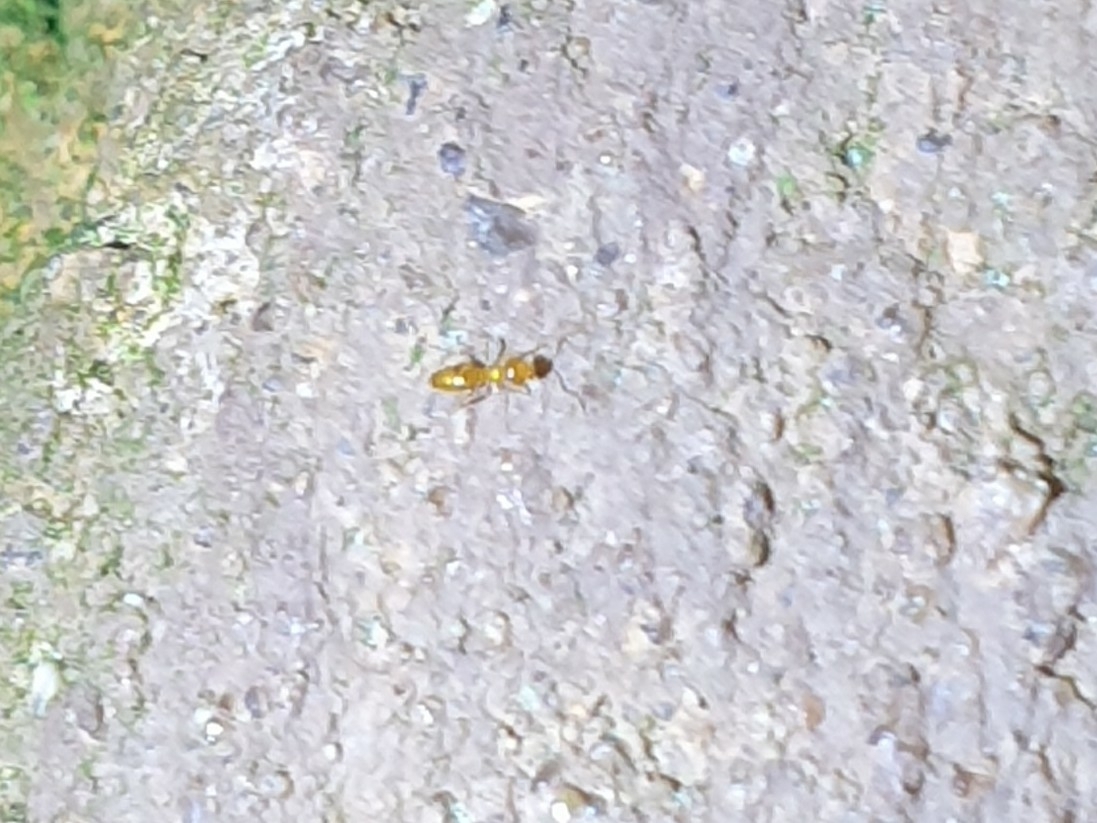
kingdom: Animalia
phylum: Arthropoda
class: Insecta
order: Hymenoptera
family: Formicidae
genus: Plagiolepis
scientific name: Plagiolepis alluaudi
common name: Little yellow ant
